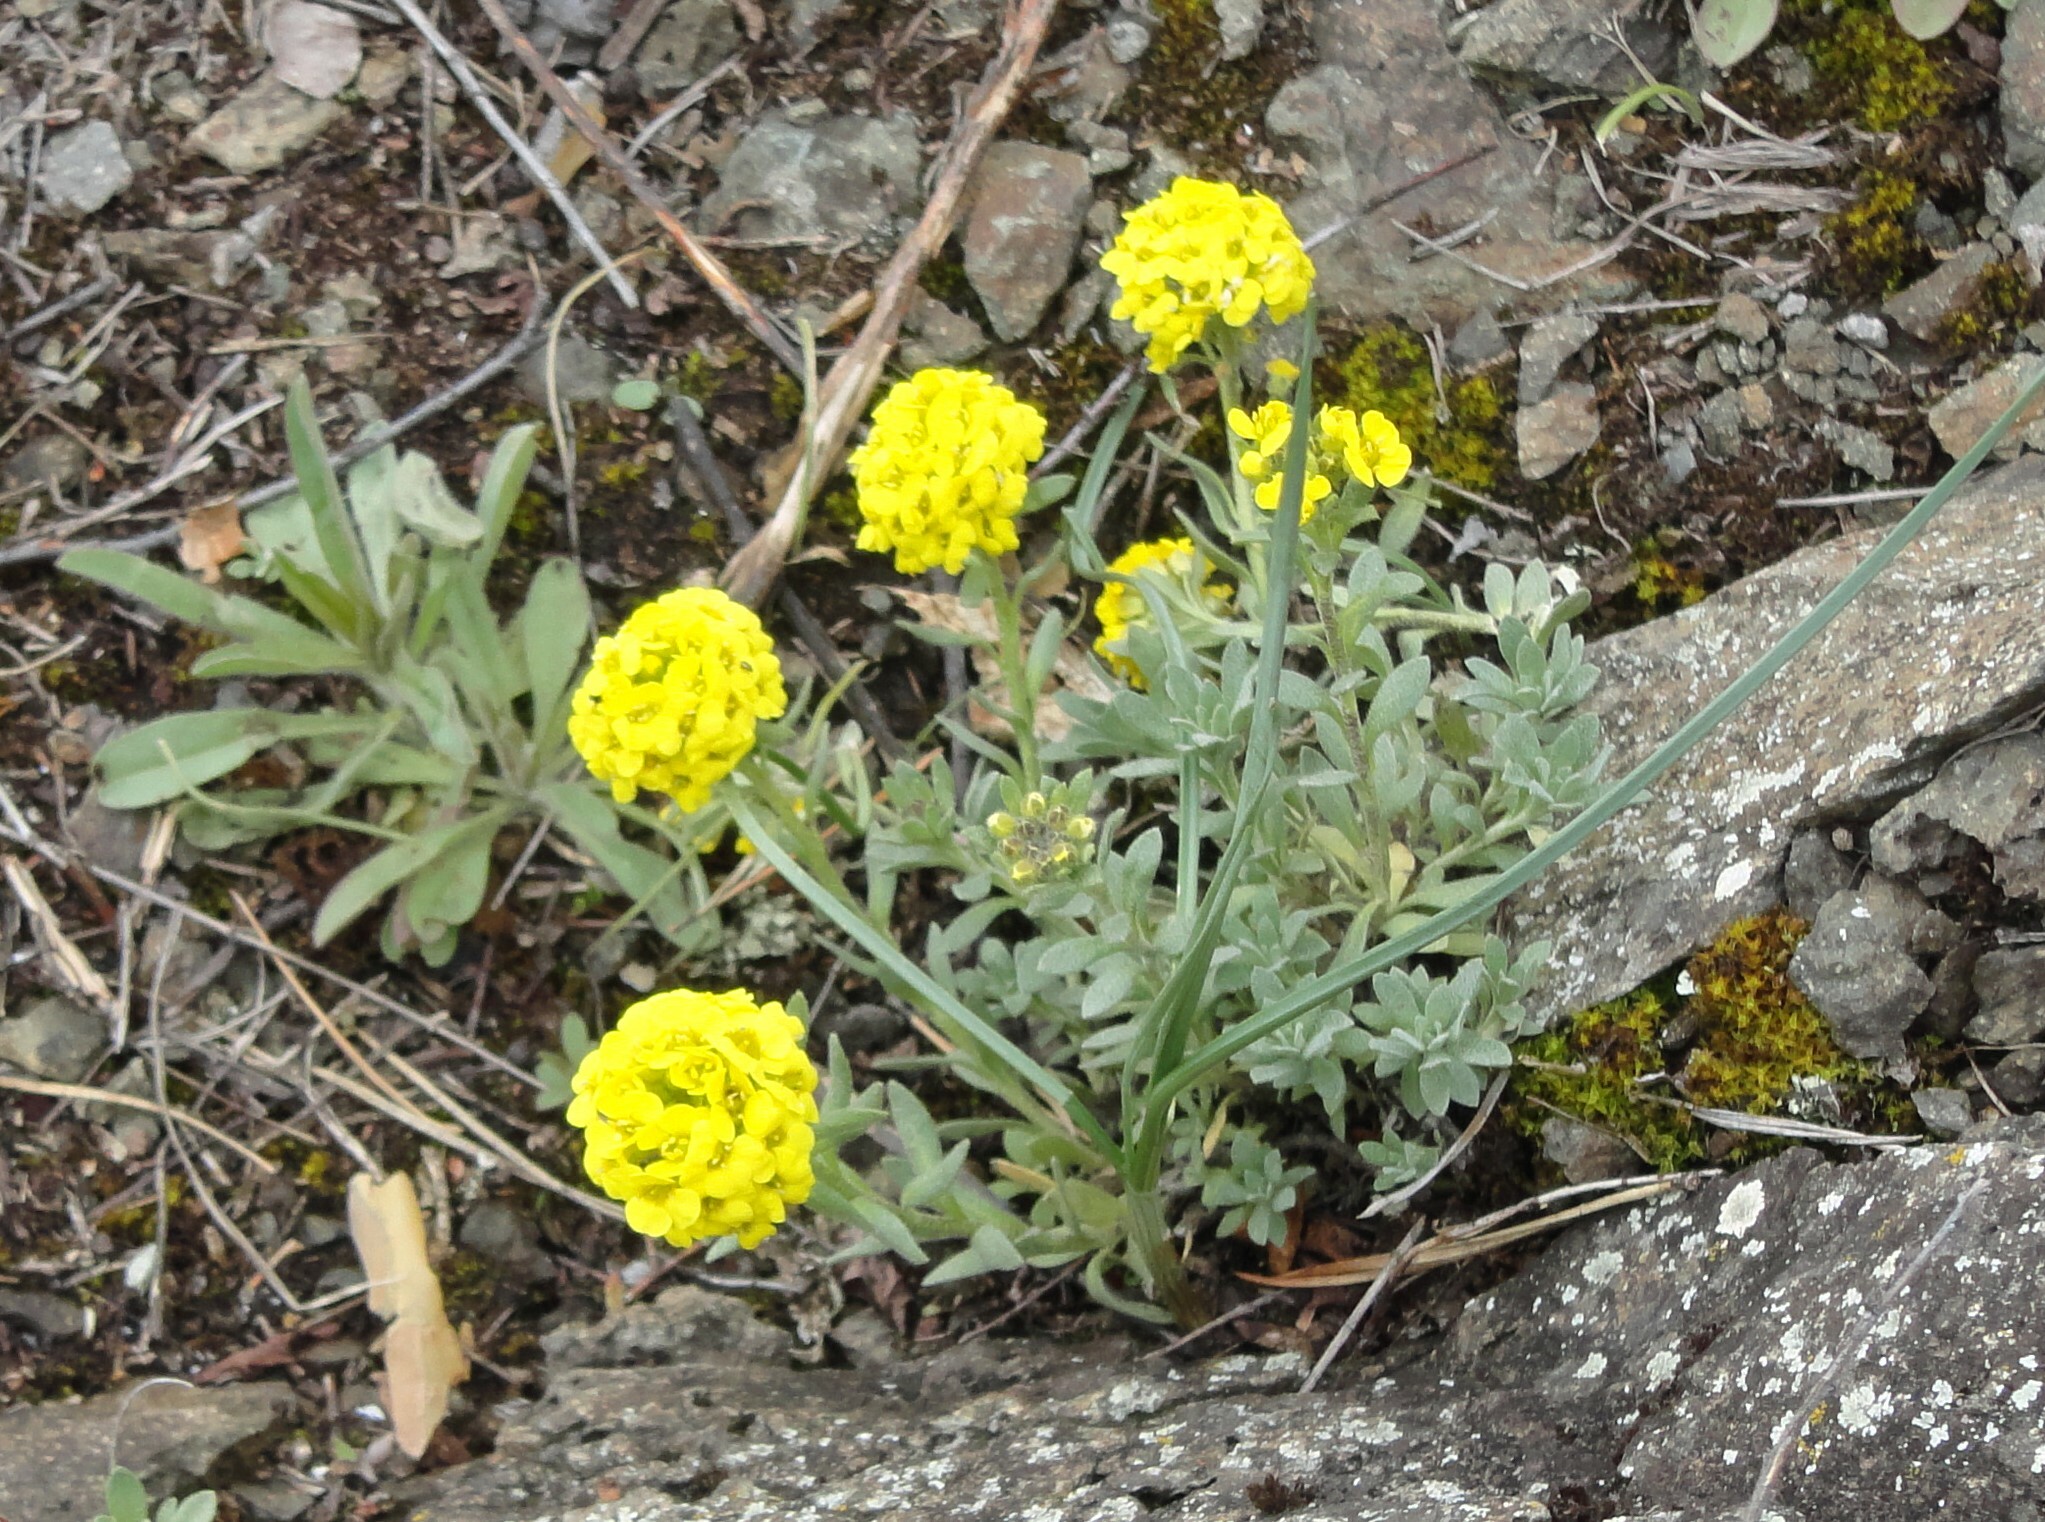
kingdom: Plantae
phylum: Tracheophyta
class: Magnoliopsida
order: Brassicales
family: Brassicaceae
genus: Alyssum
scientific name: Alyssum lenense
